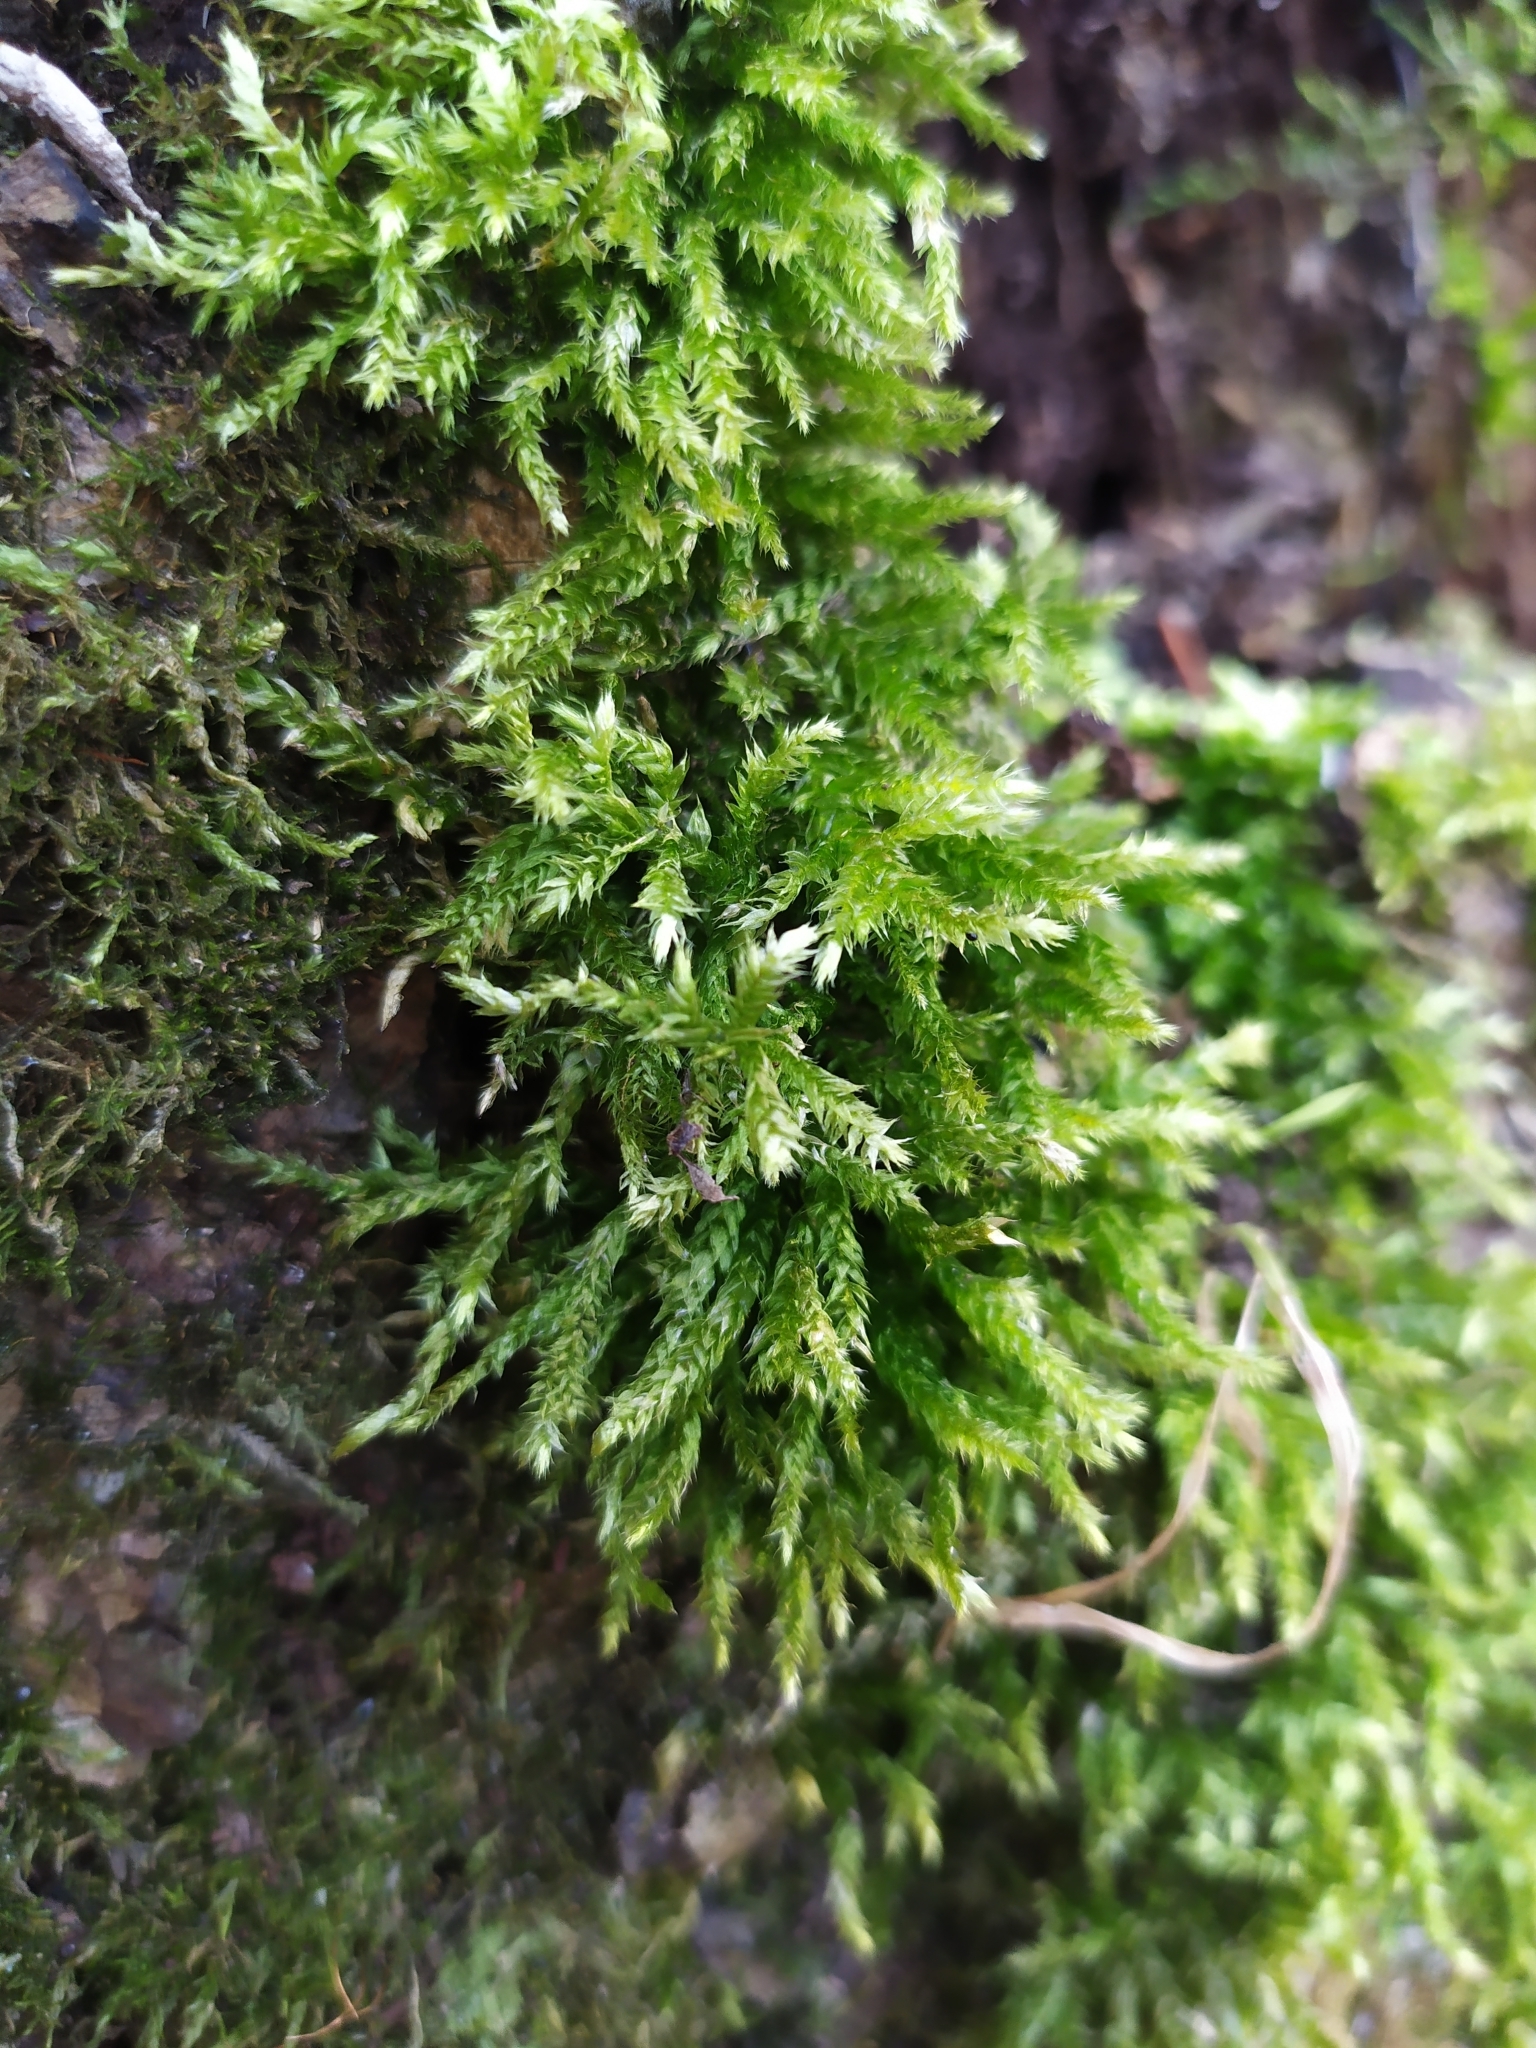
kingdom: Plantae
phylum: Bryophyta
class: Bryopsida
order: Hypnales
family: Brachytheciaceae
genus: Brachythecium
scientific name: Brachythecium rutabulum
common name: Rough-stalked feather-moss
